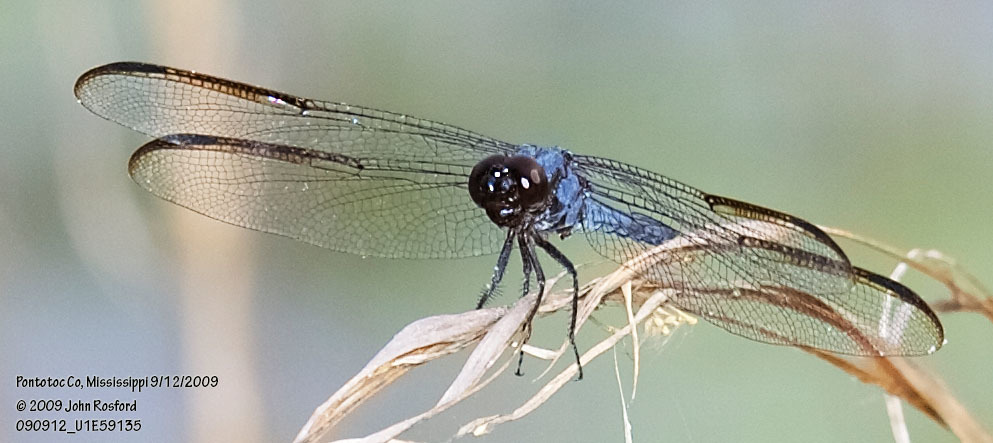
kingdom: Animalia
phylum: Arthropoda
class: Insecta
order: Odonata
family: Libellulidae
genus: Libellula
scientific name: Libellula incesta
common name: Slaty skimmer
